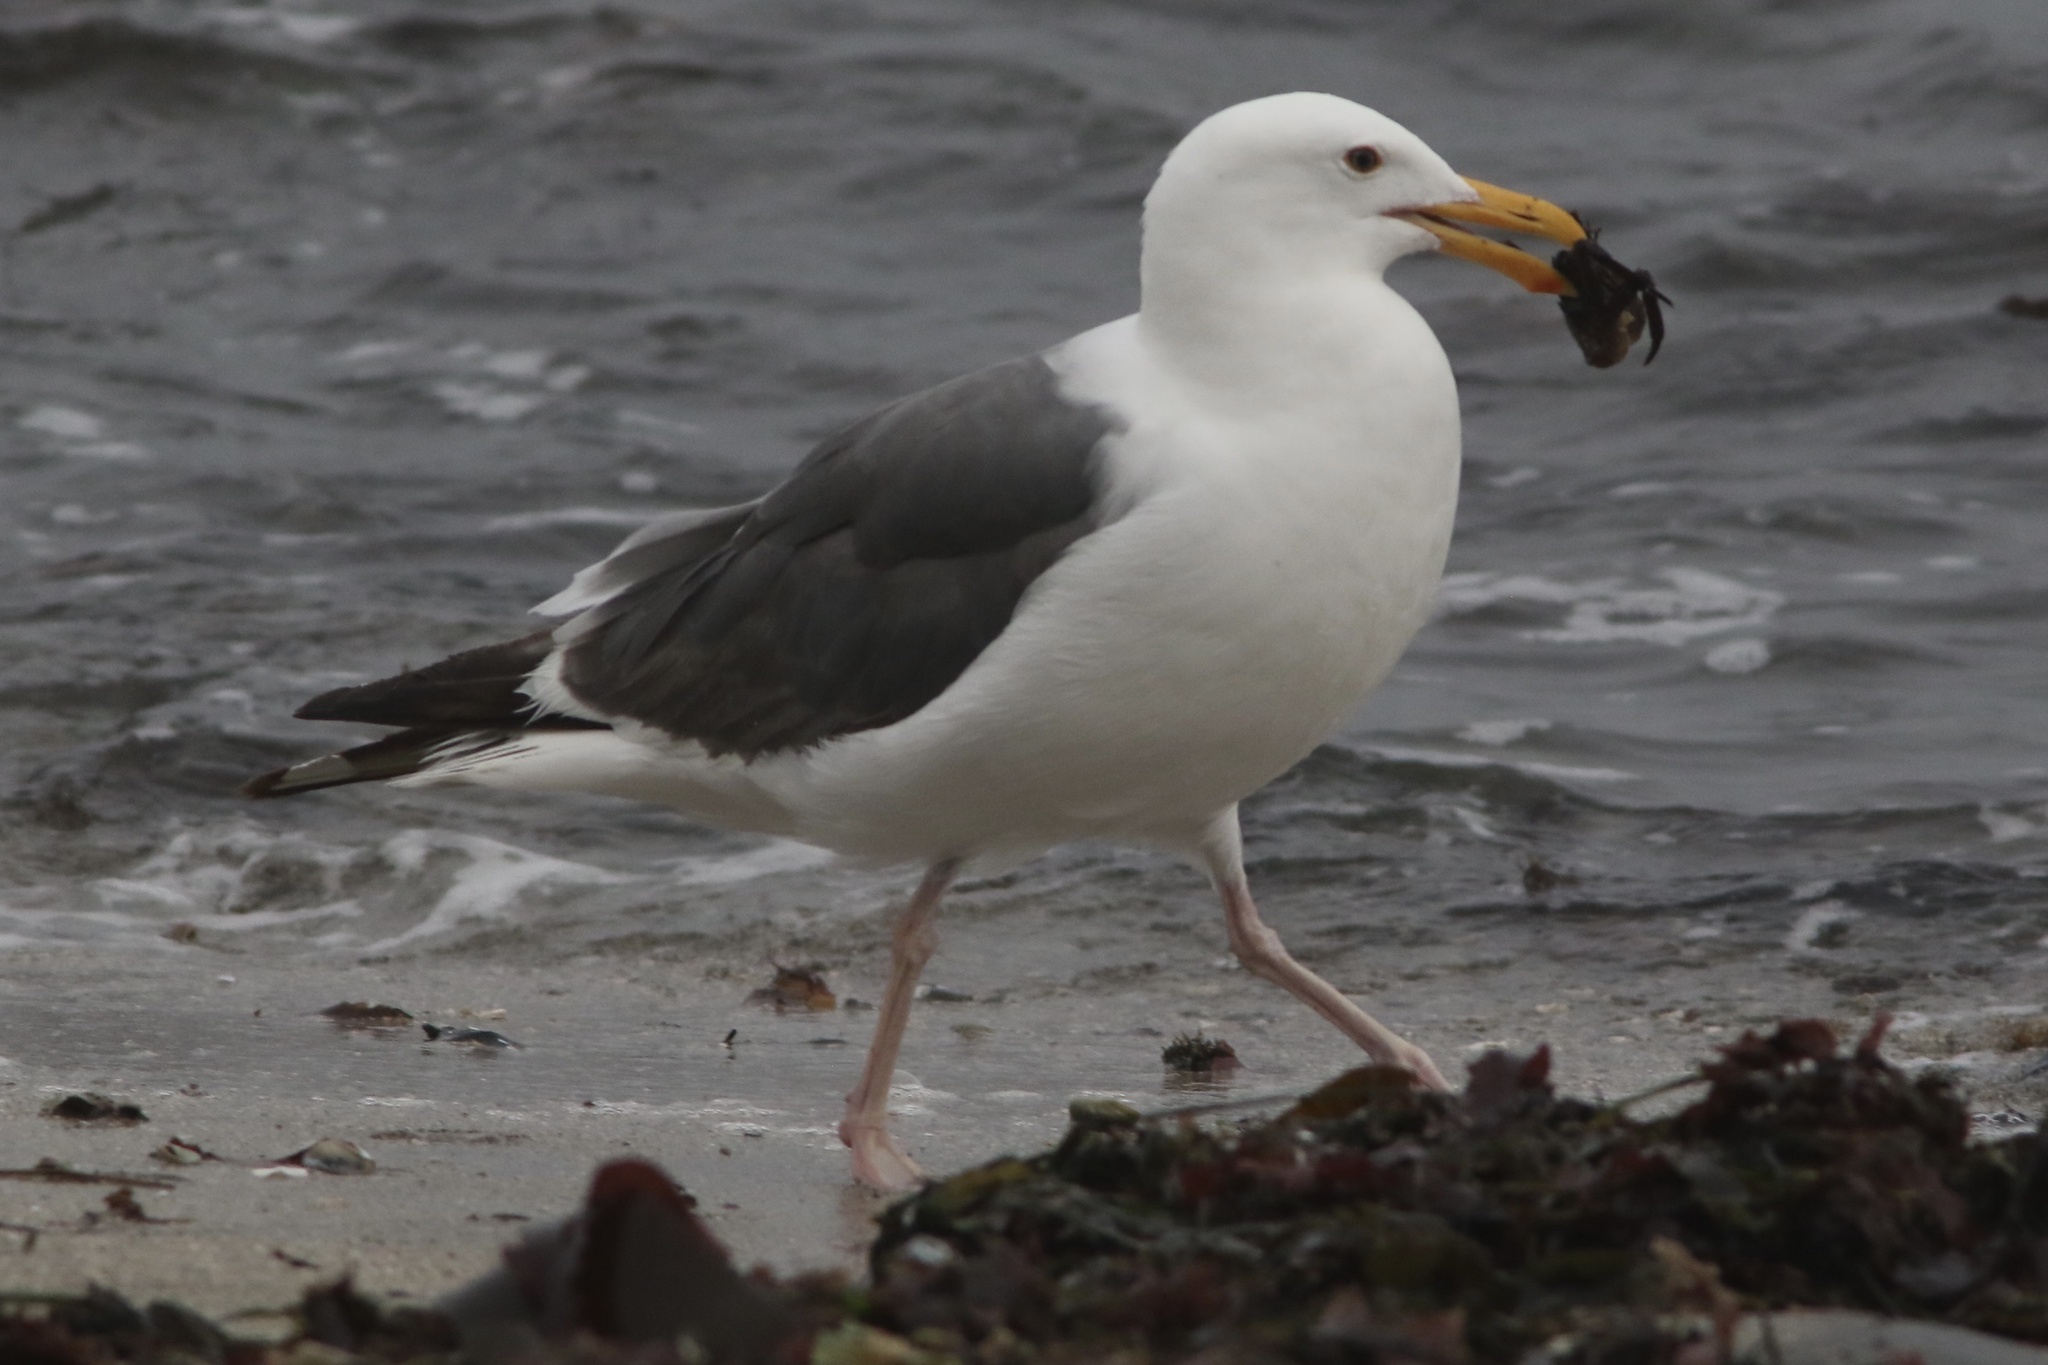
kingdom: Animalia
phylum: Chordata
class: Aves
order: Charadriiformes
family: Laridae
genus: Larus
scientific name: Larus occidentalis
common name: Western gull
